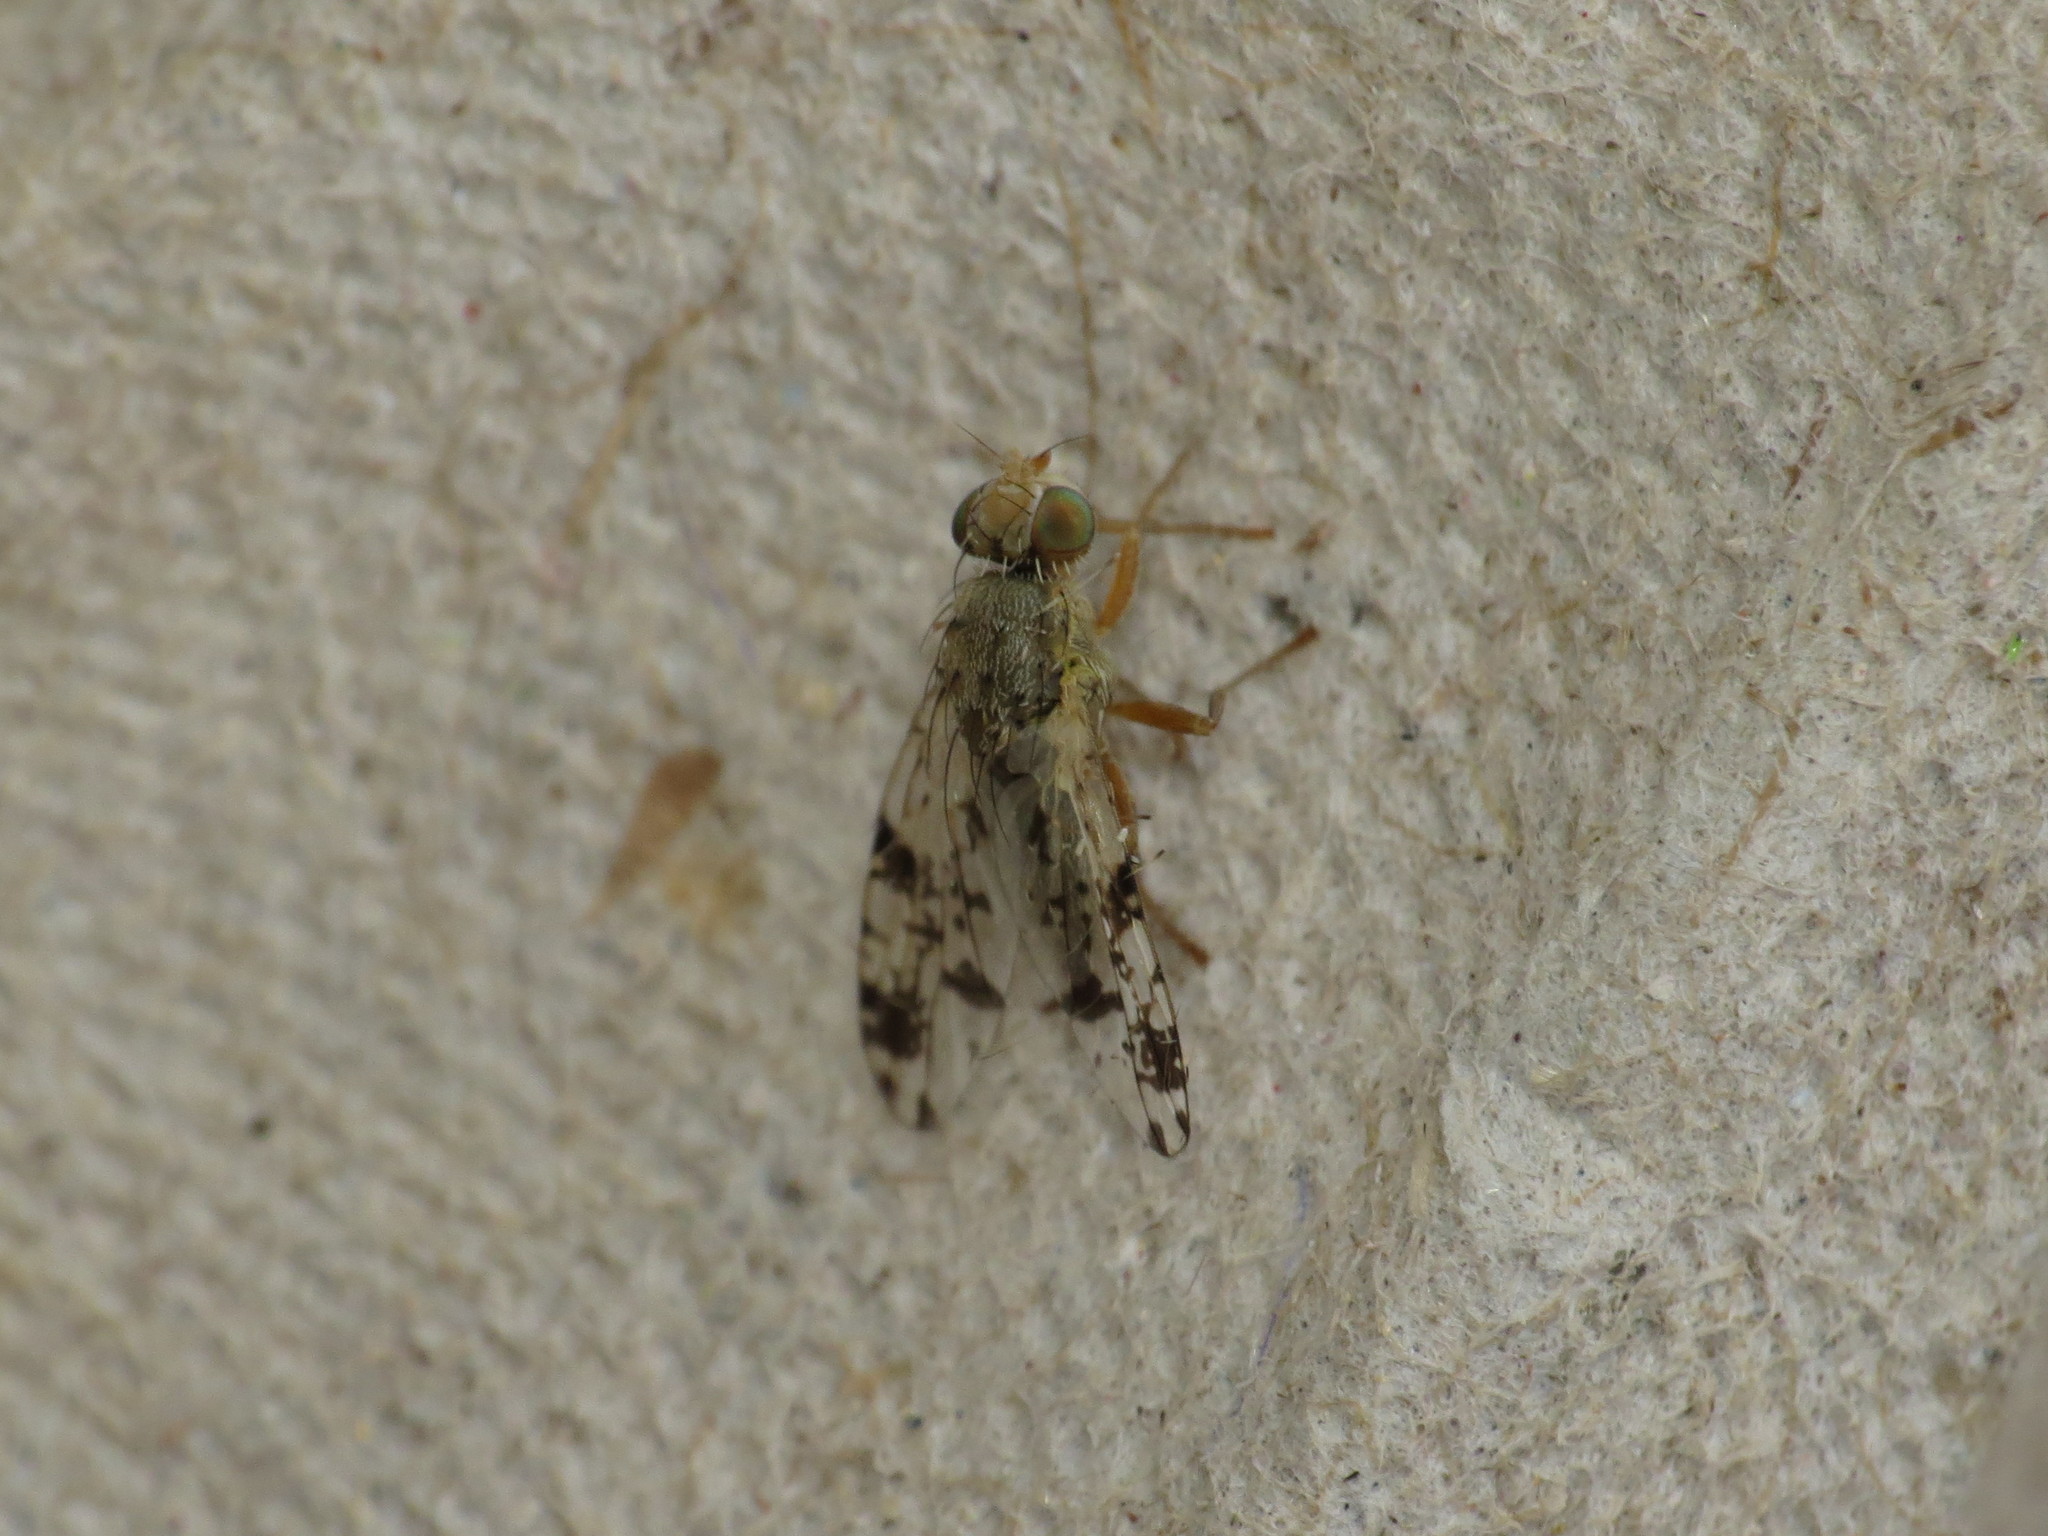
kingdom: Animalia
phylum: Arthropoda
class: Insecta
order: Diptera
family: Tephritidae
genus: Tephritis
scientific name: Tephritis hyoscyami
